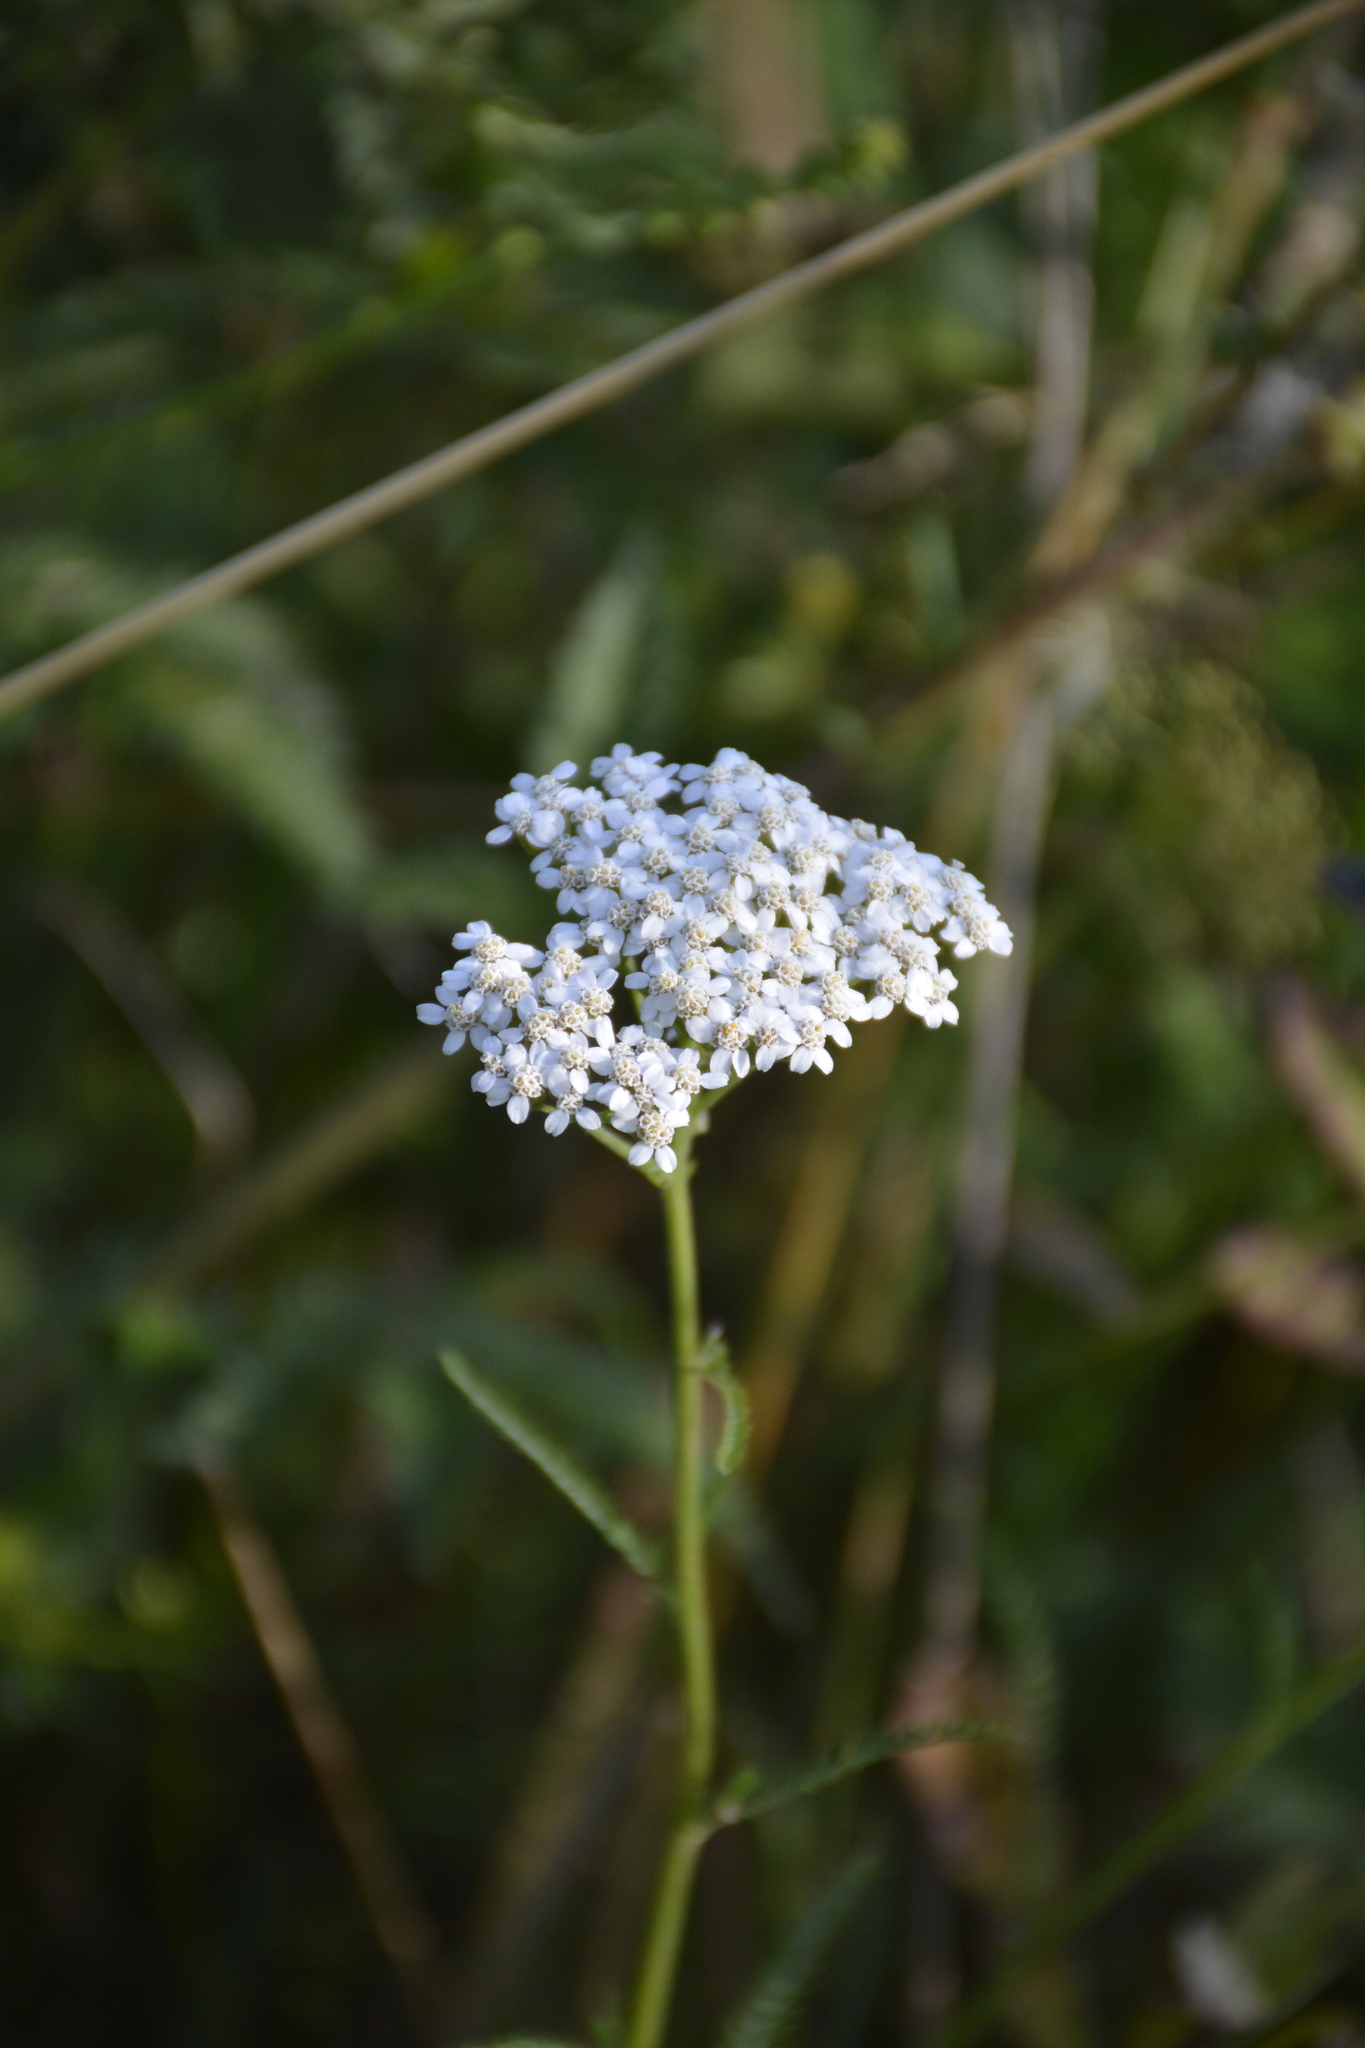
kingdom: Plantae
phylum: Tracheophyta
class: Magnoliopsida
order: Asterales
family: Asteraceae
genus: Achillea
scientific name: Achillea millefolium
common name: Yarrow
